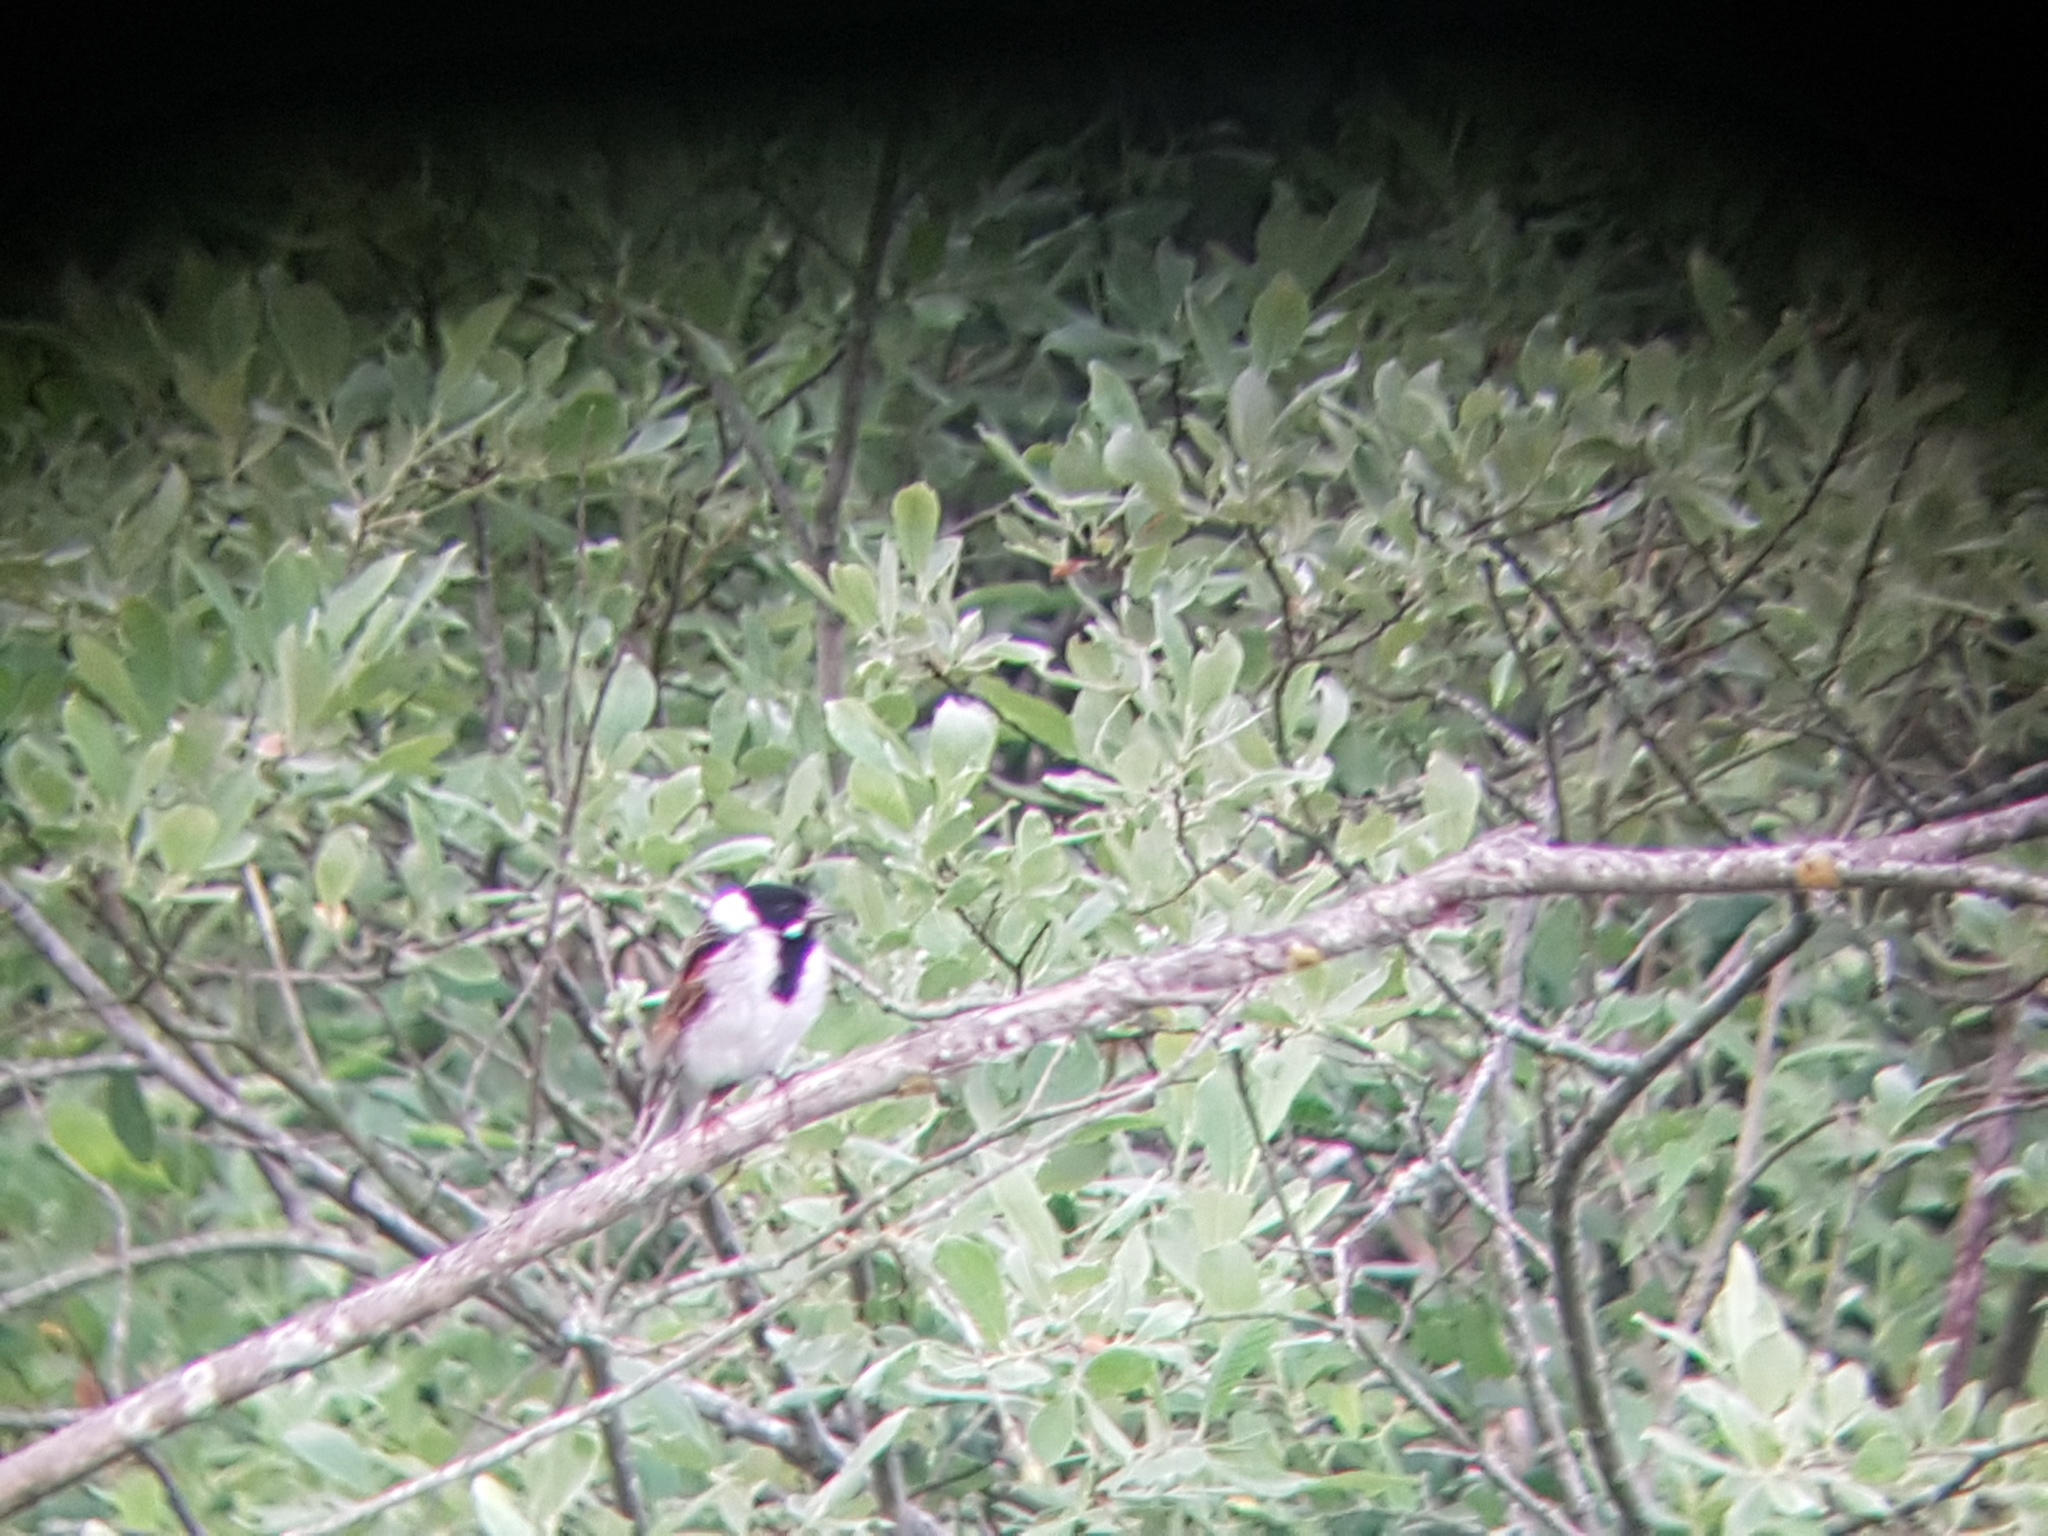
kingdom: Animalia
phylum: Chordata
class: Aves
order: Passeriformes
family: Emberizidae
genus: Emberiza
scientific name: Emberiza schoeniclus
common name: Reed bunting
